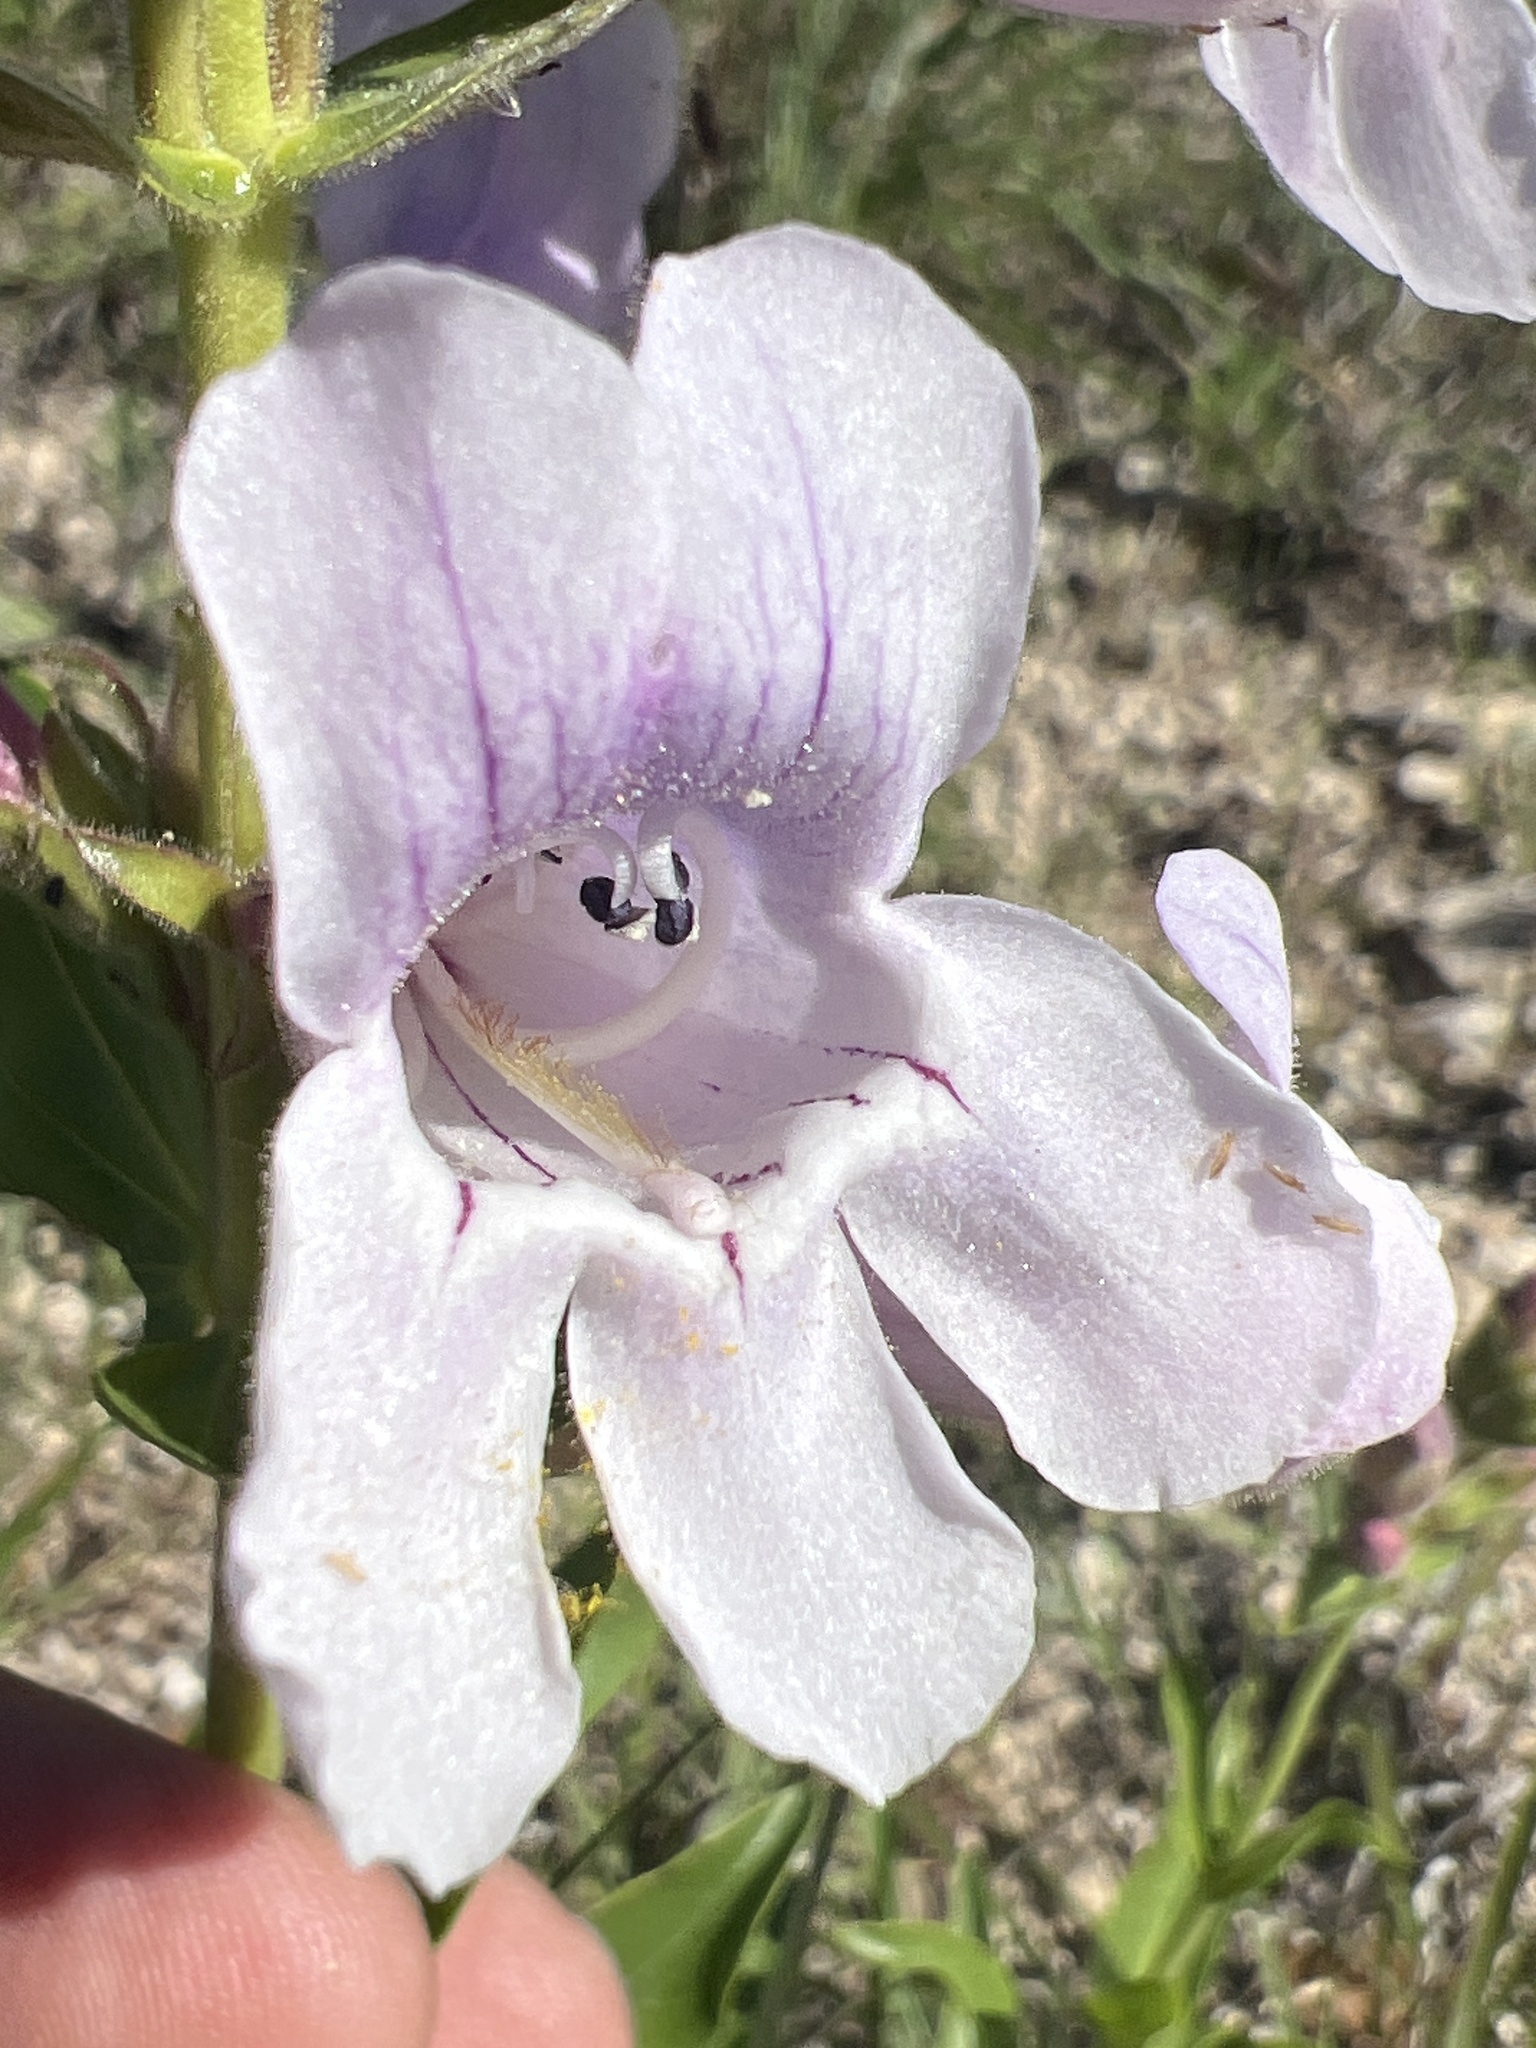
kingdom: Plantae
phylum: Tracheophyta
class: Magnoliopsida
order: Lamiales
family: Plantaginaceae
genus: Penstemon
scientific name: Penstemon cobaea
